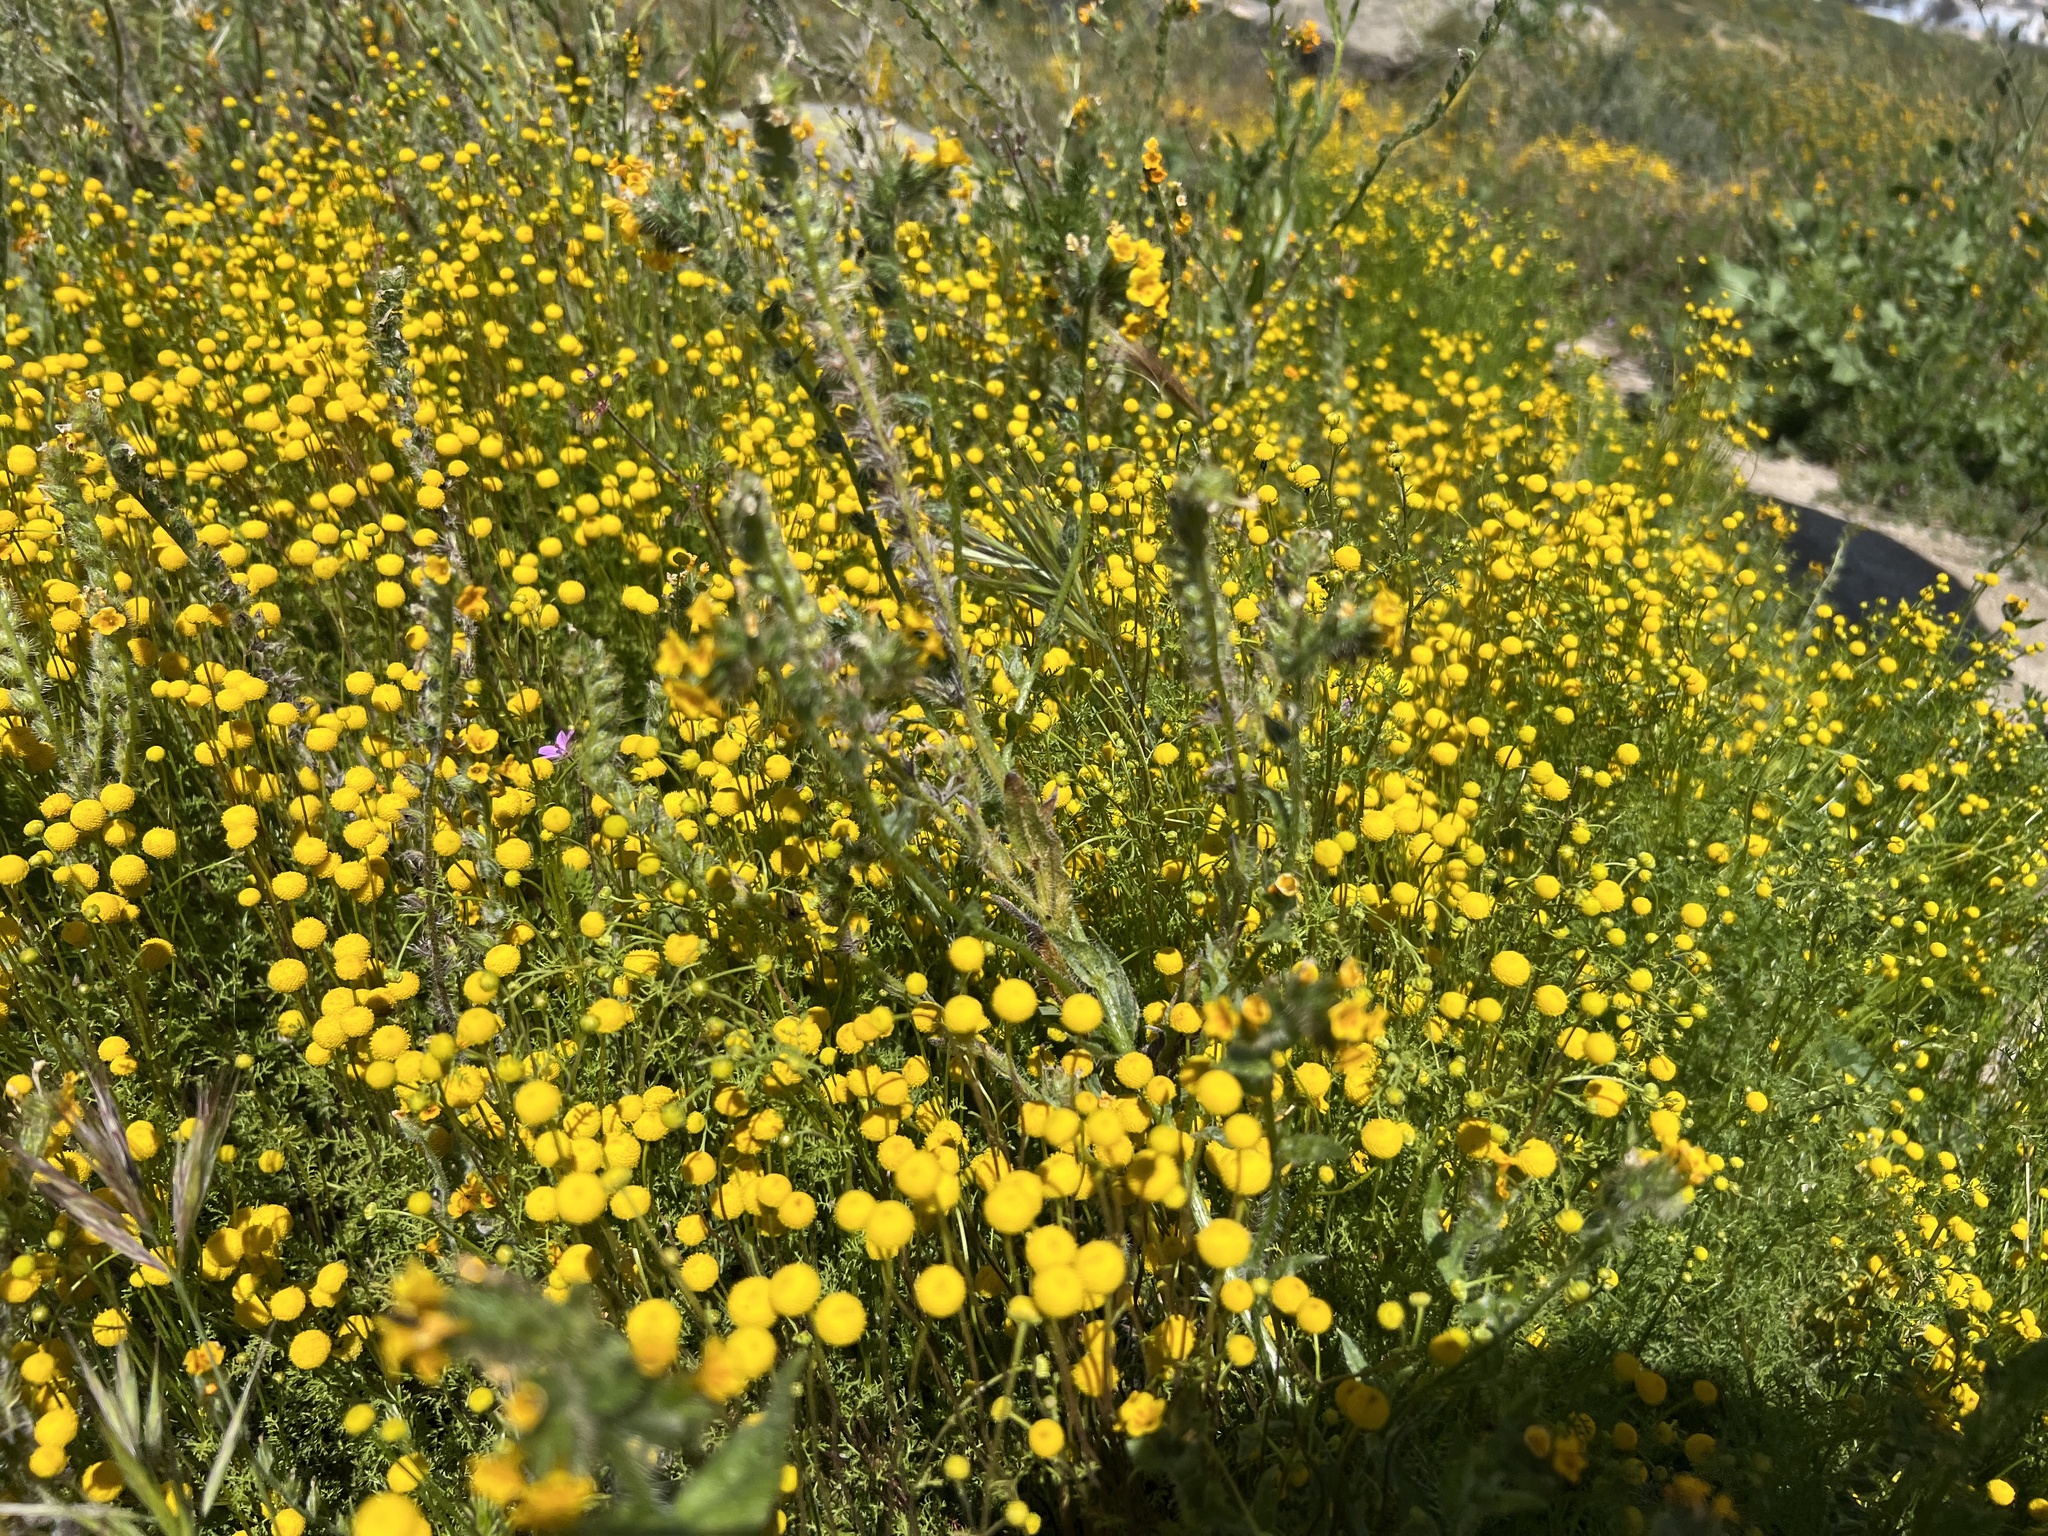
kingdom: Plantae
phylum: Tracheophyta
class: Magnoliopsida
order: Asterales
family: Asteraceae
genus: Oncosiphon
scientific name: Oncosiphon pilulifer
